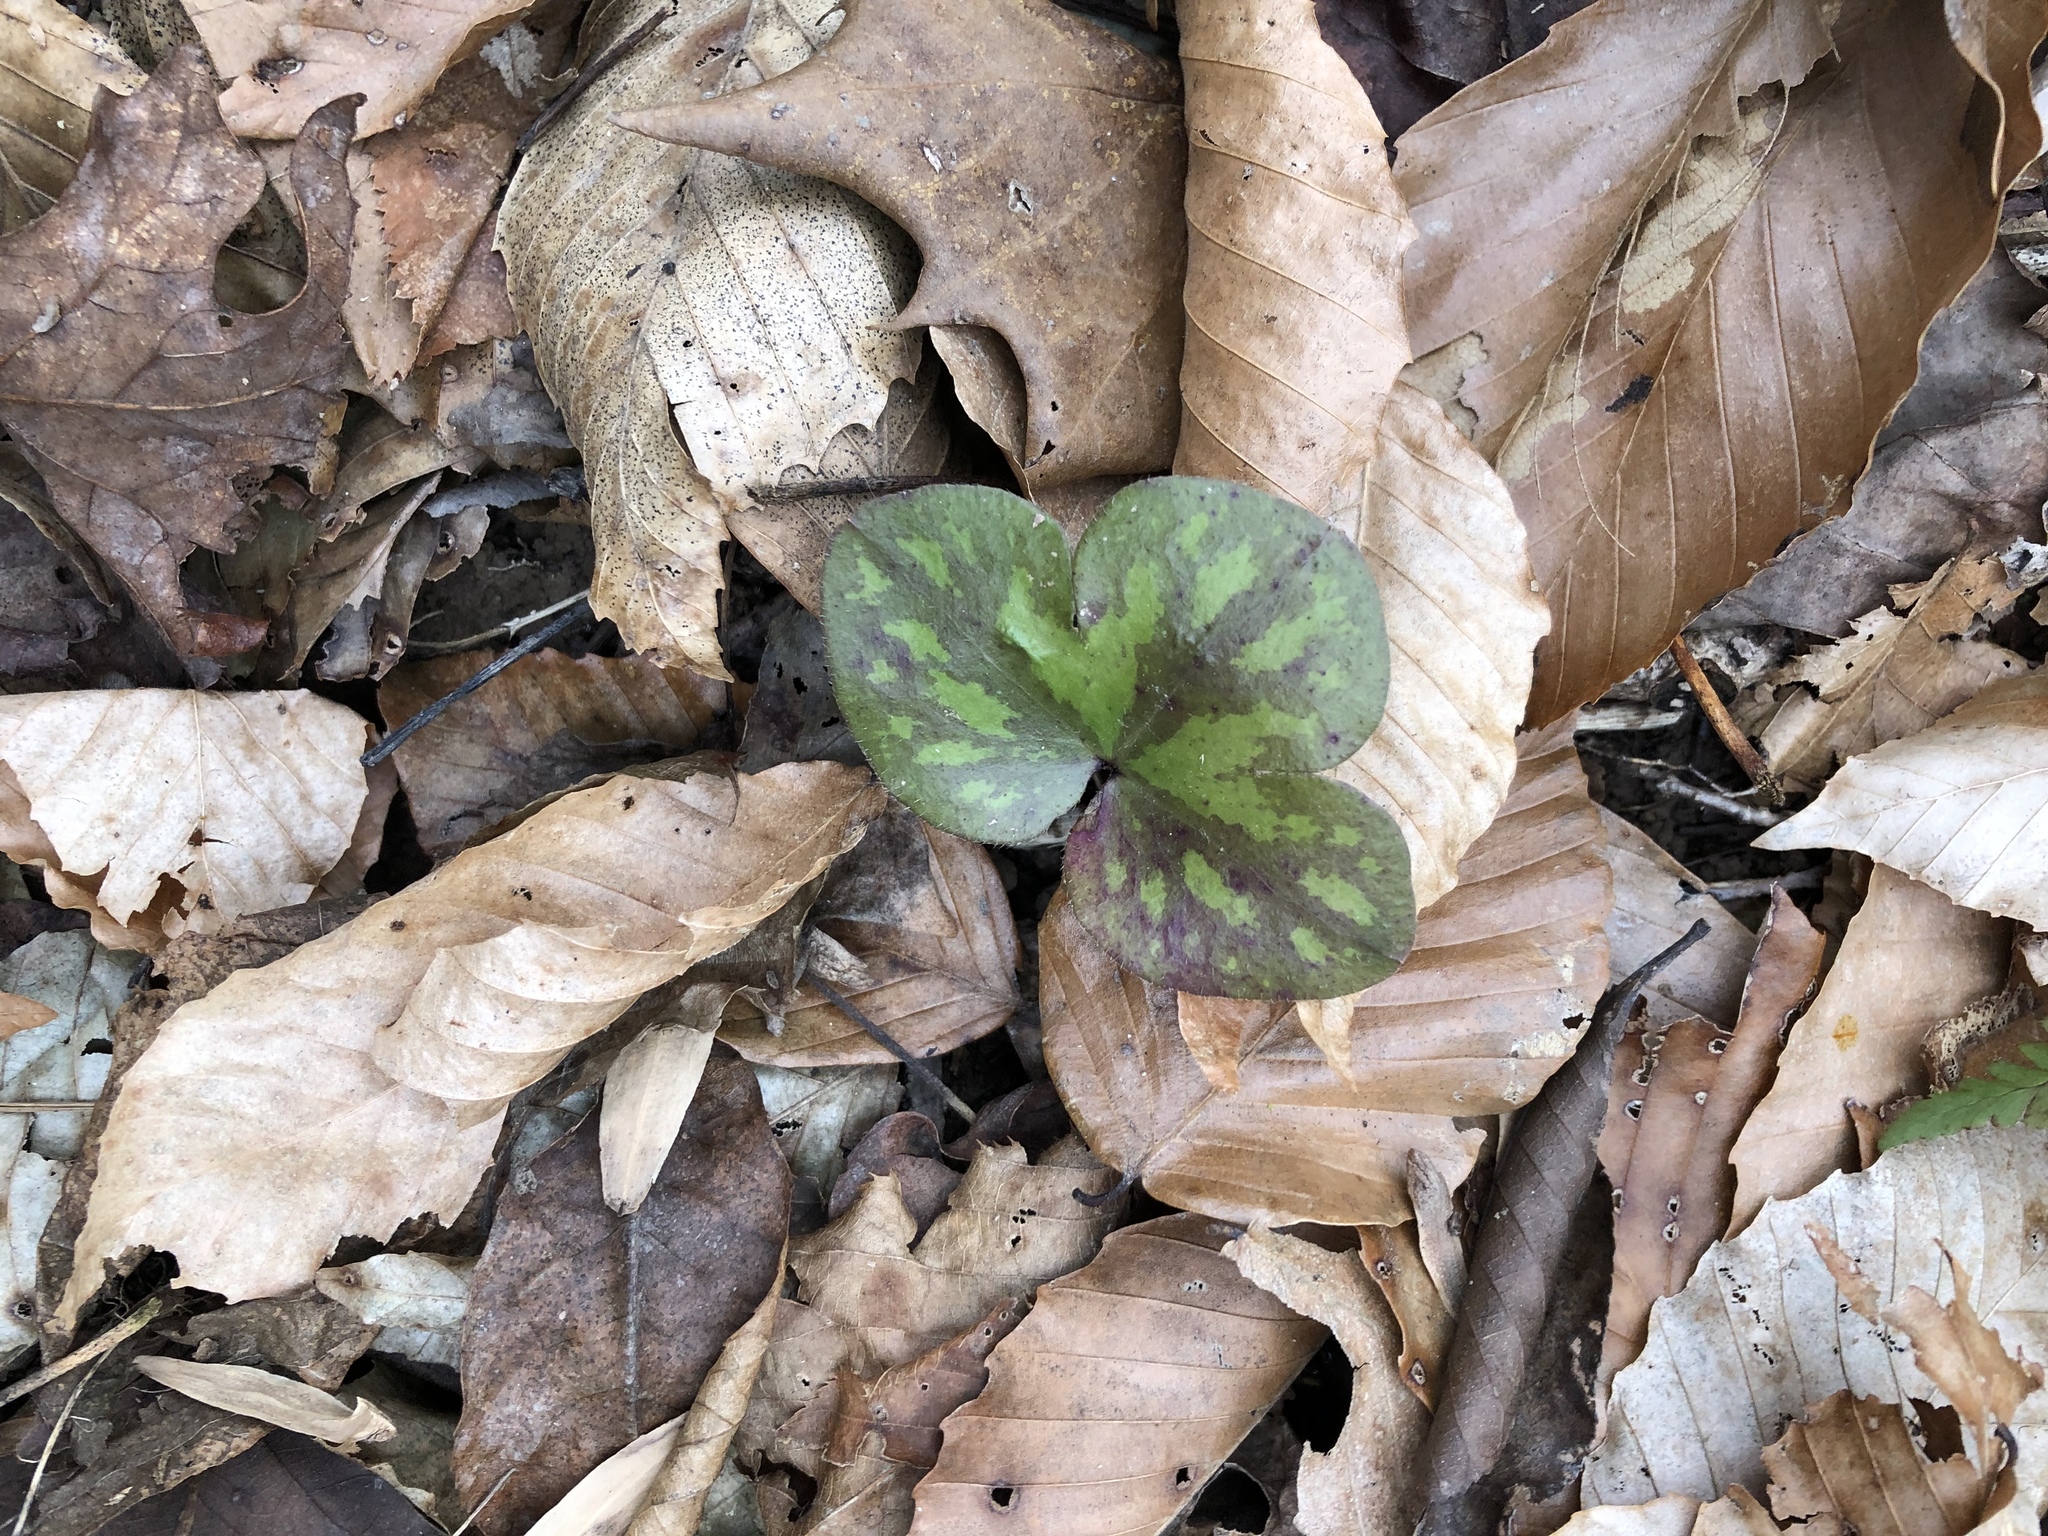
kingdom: Plantae
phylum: Tracheophyta
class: Magnoliopsida
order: Ranunculales
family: Ranunculaceae
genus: Hepatica
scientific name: Hepatica americana
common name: American hepatica
